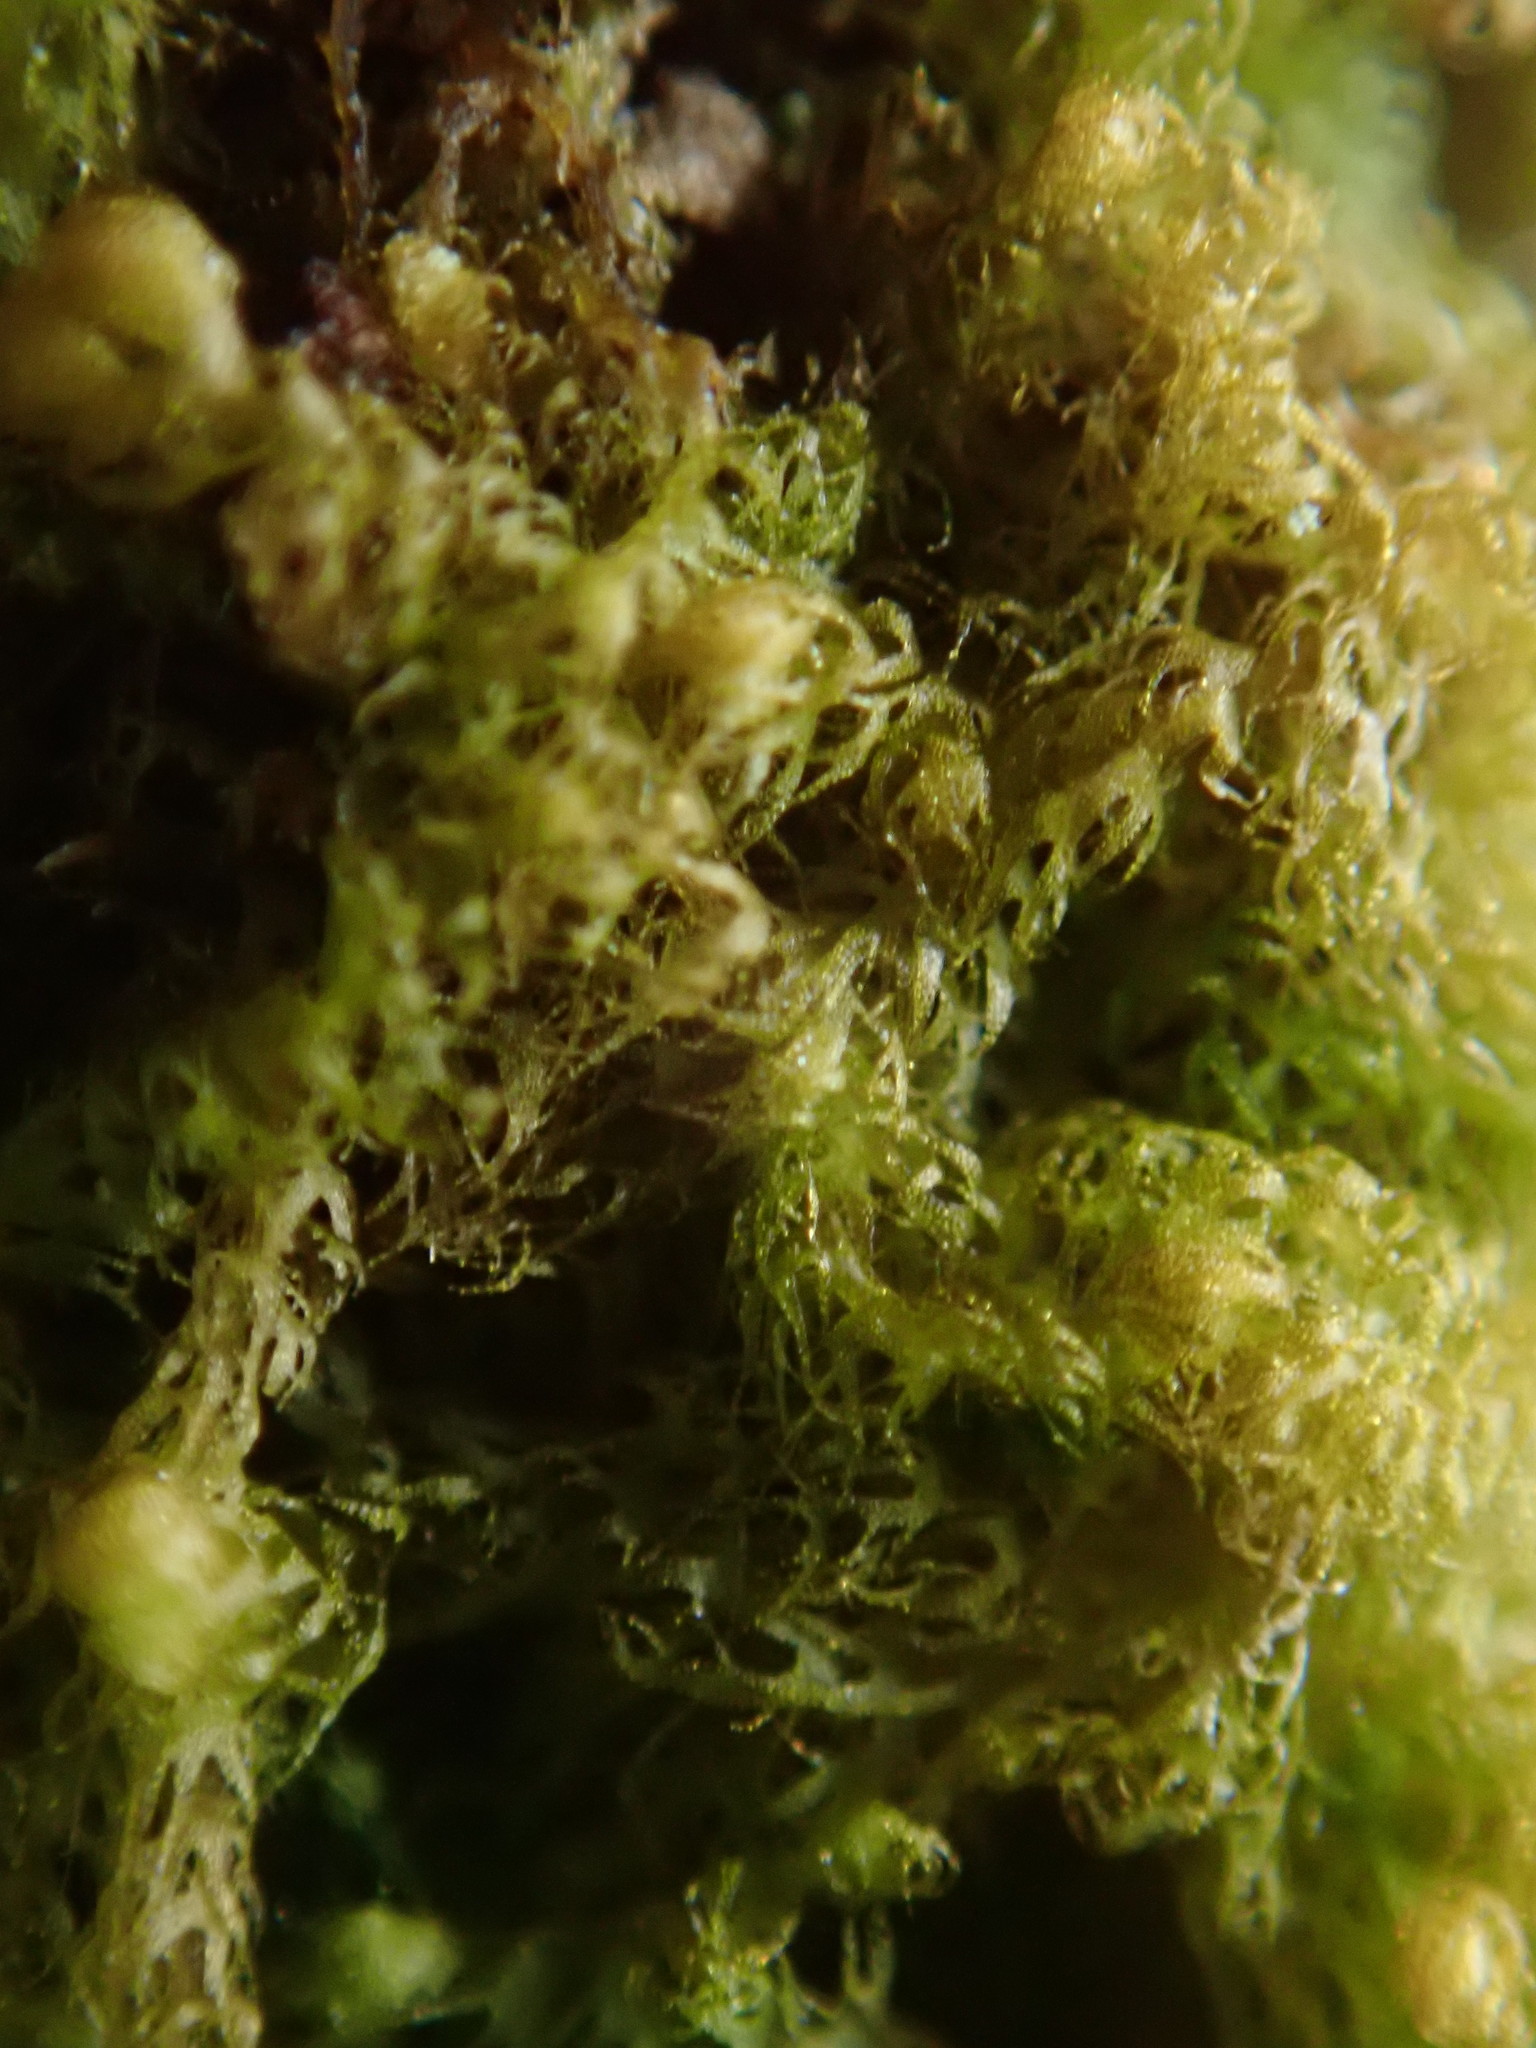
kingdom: Plantae
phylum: Marchantiophyta
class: Jungermanniopsida
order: Ptilidiales
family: Ptilidiaceae
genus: Ptilidium
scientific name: Ptilidium californicum
